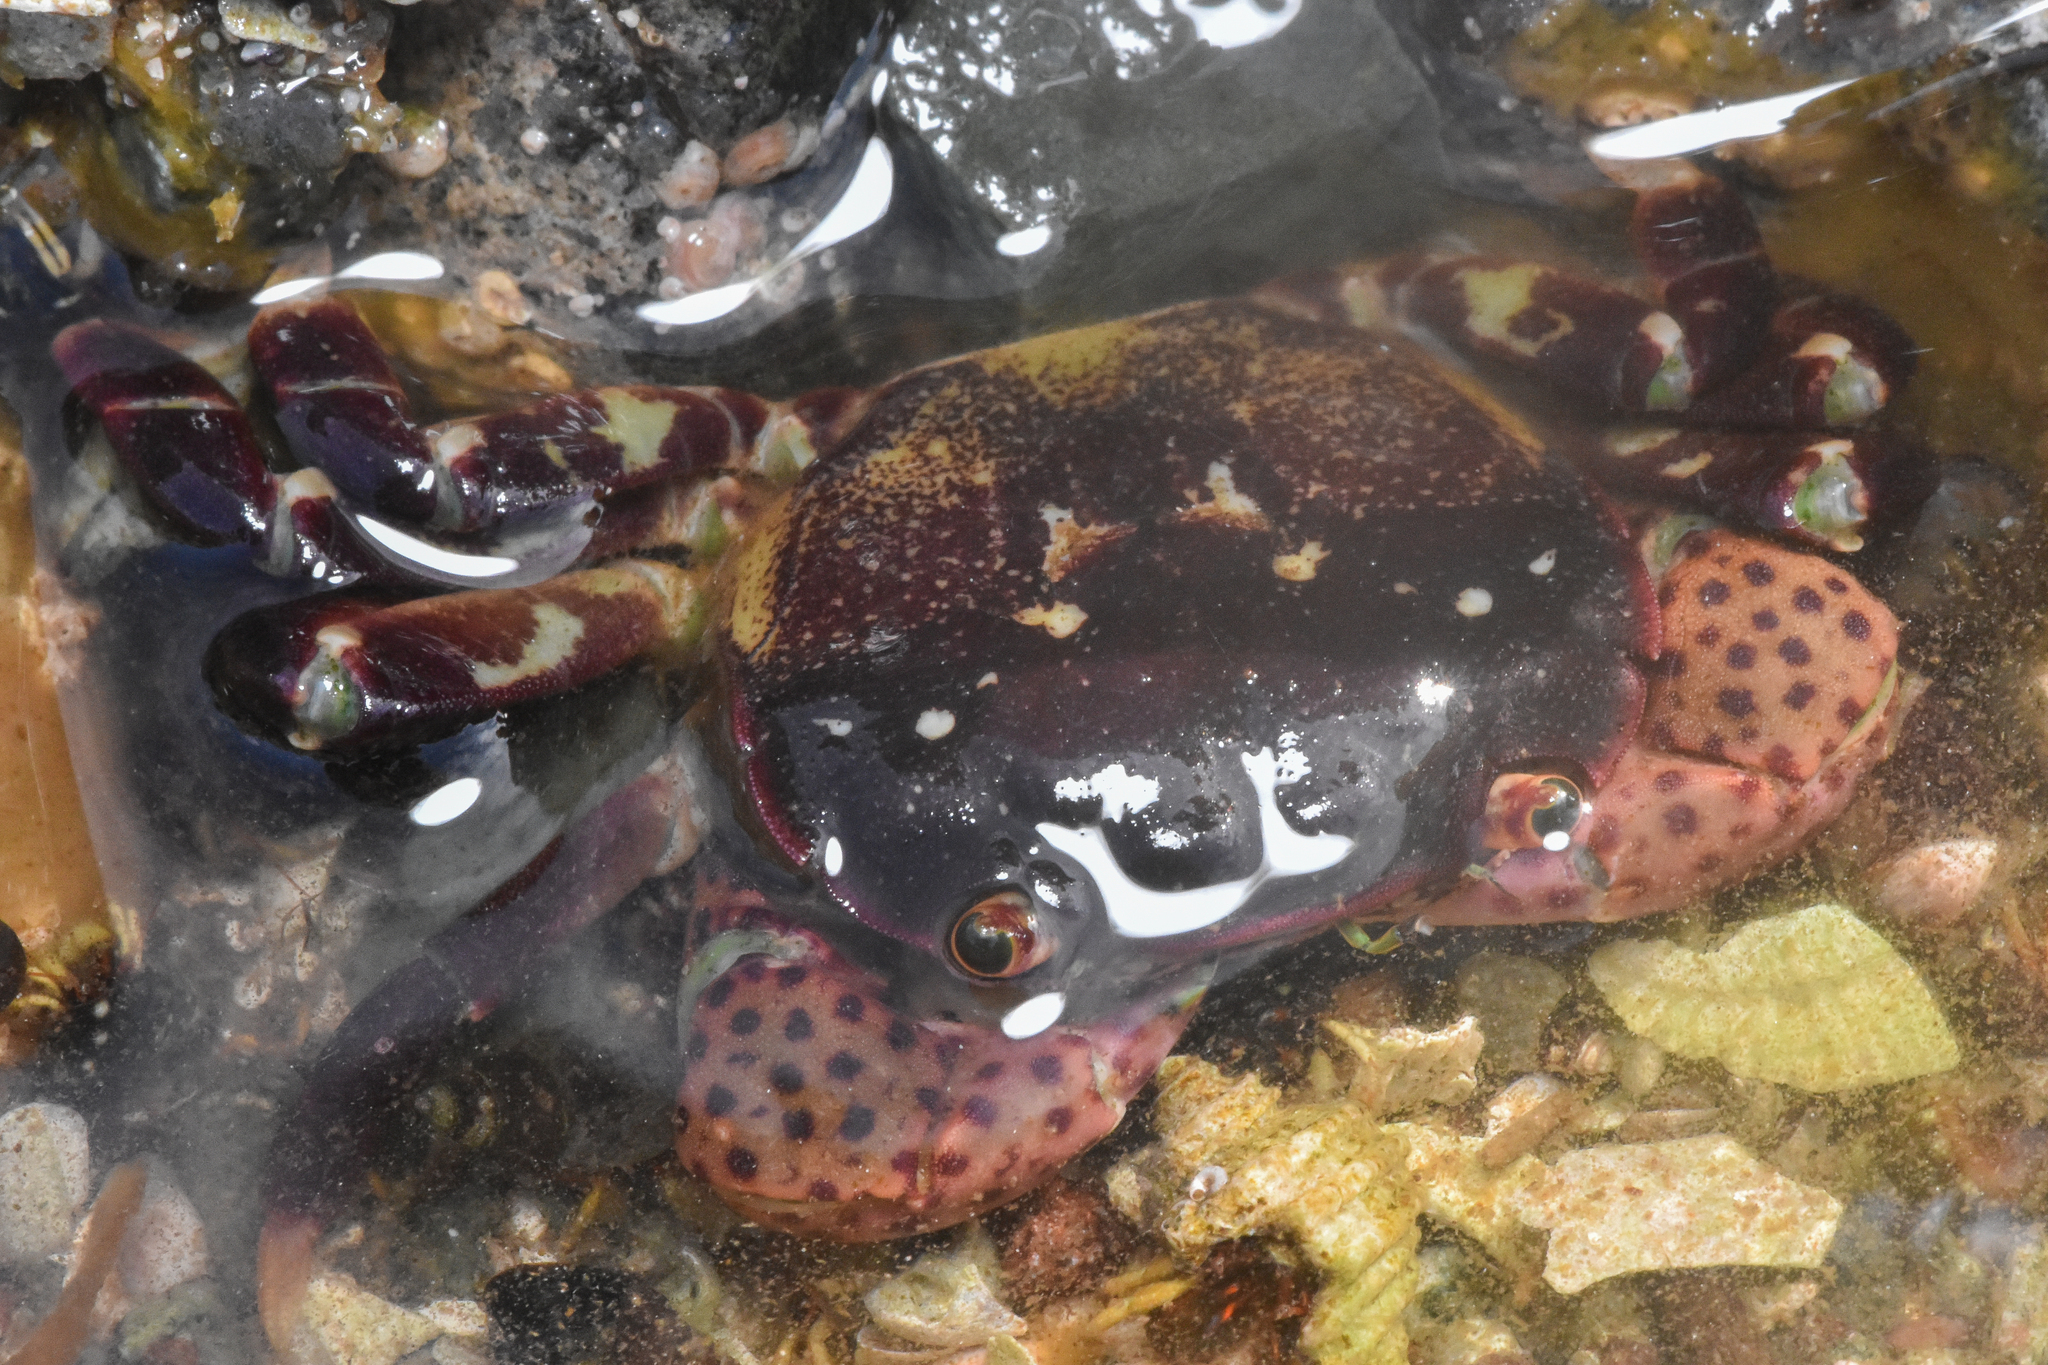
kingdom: Animalia
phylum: Arthropoda
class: Malacostraca
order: Decapoda
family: Varunidae
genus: Hemigrapsus
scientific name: Hemigrapsus nudus
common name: Purple shore crab
